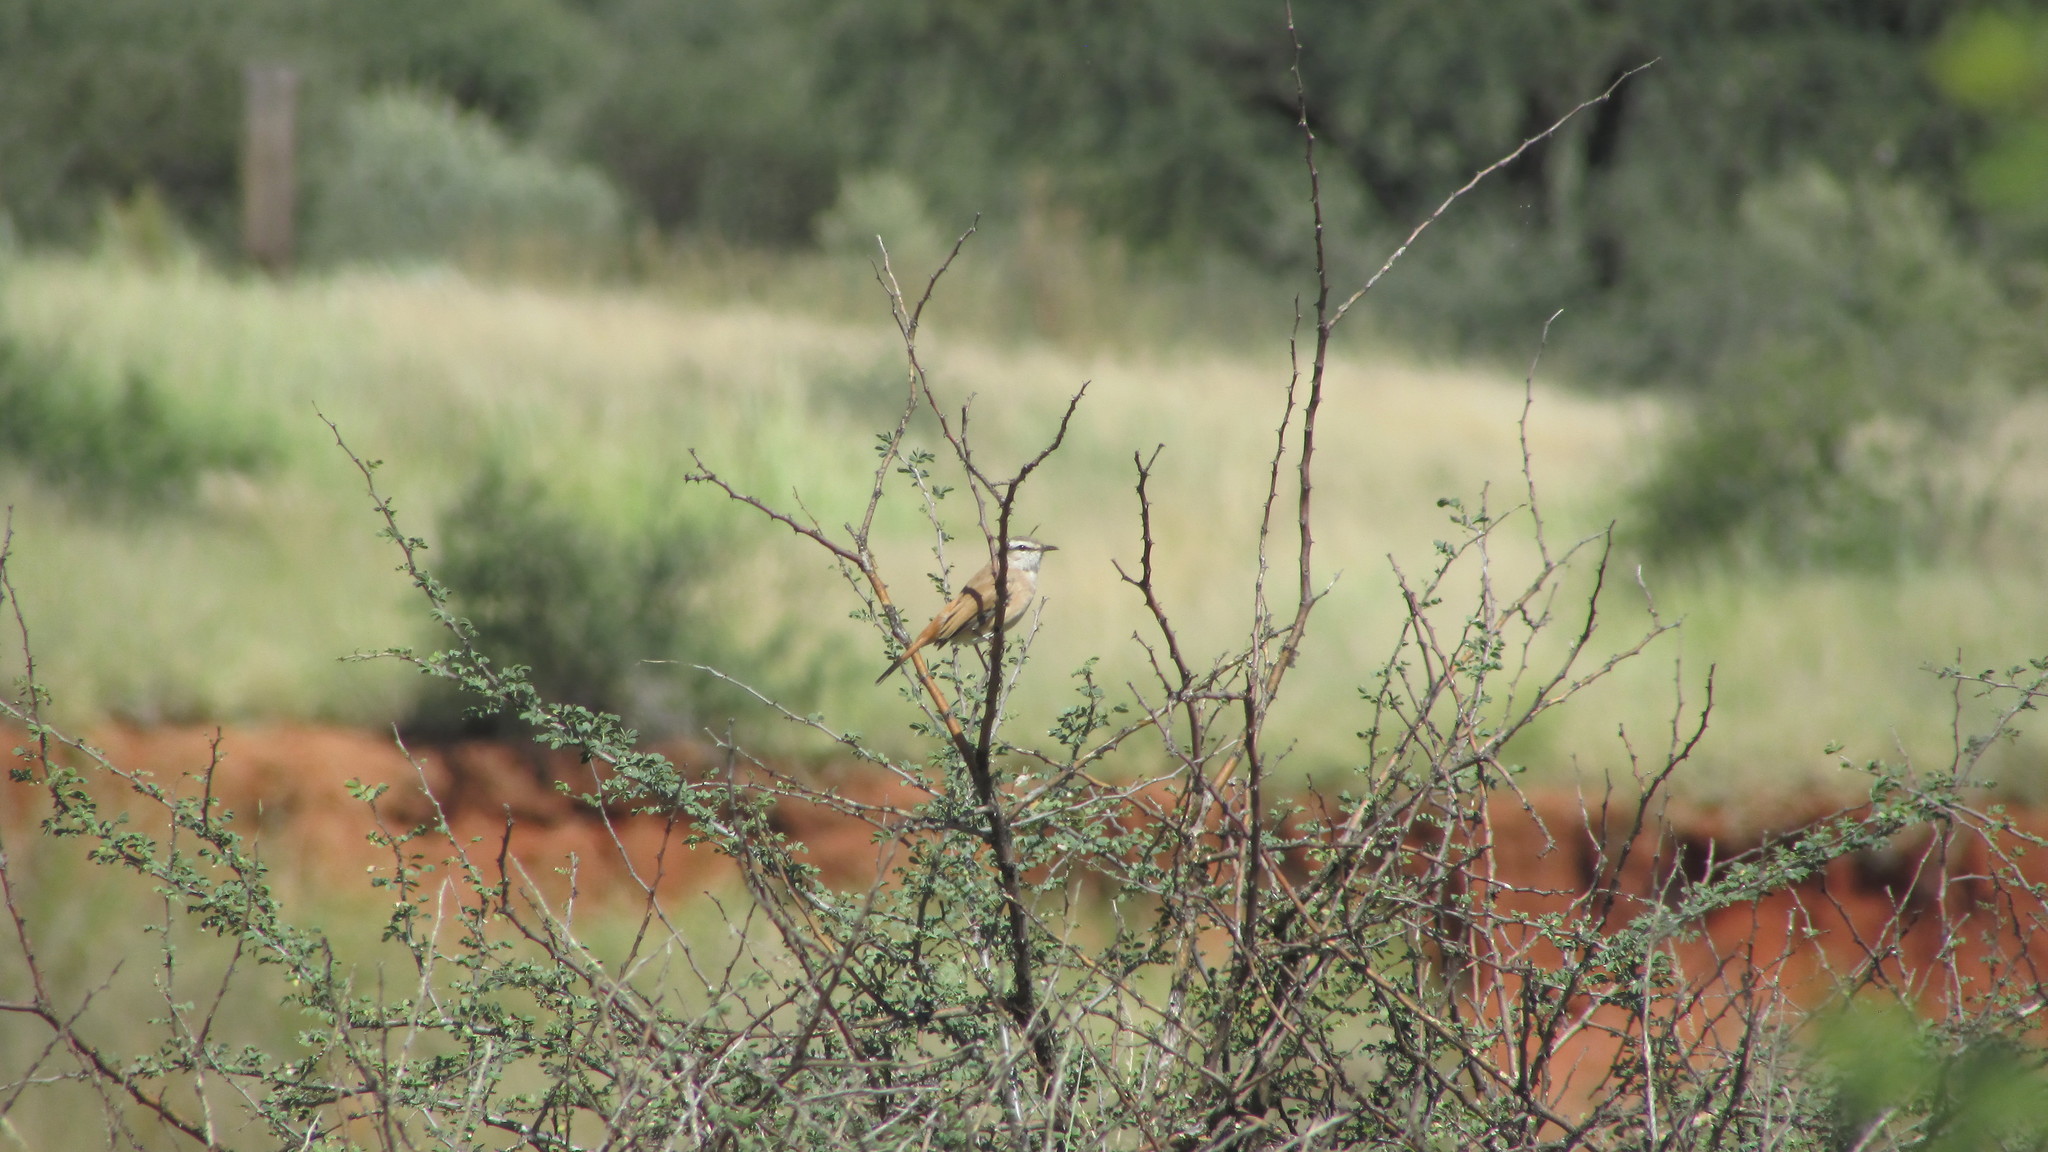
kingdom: Animalia
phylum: Chordata
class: Aves
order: Passeriformes
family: Muscicapidae
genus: Erythropygia
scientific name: Erythropygia paena
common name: Kalahari scrub robin
